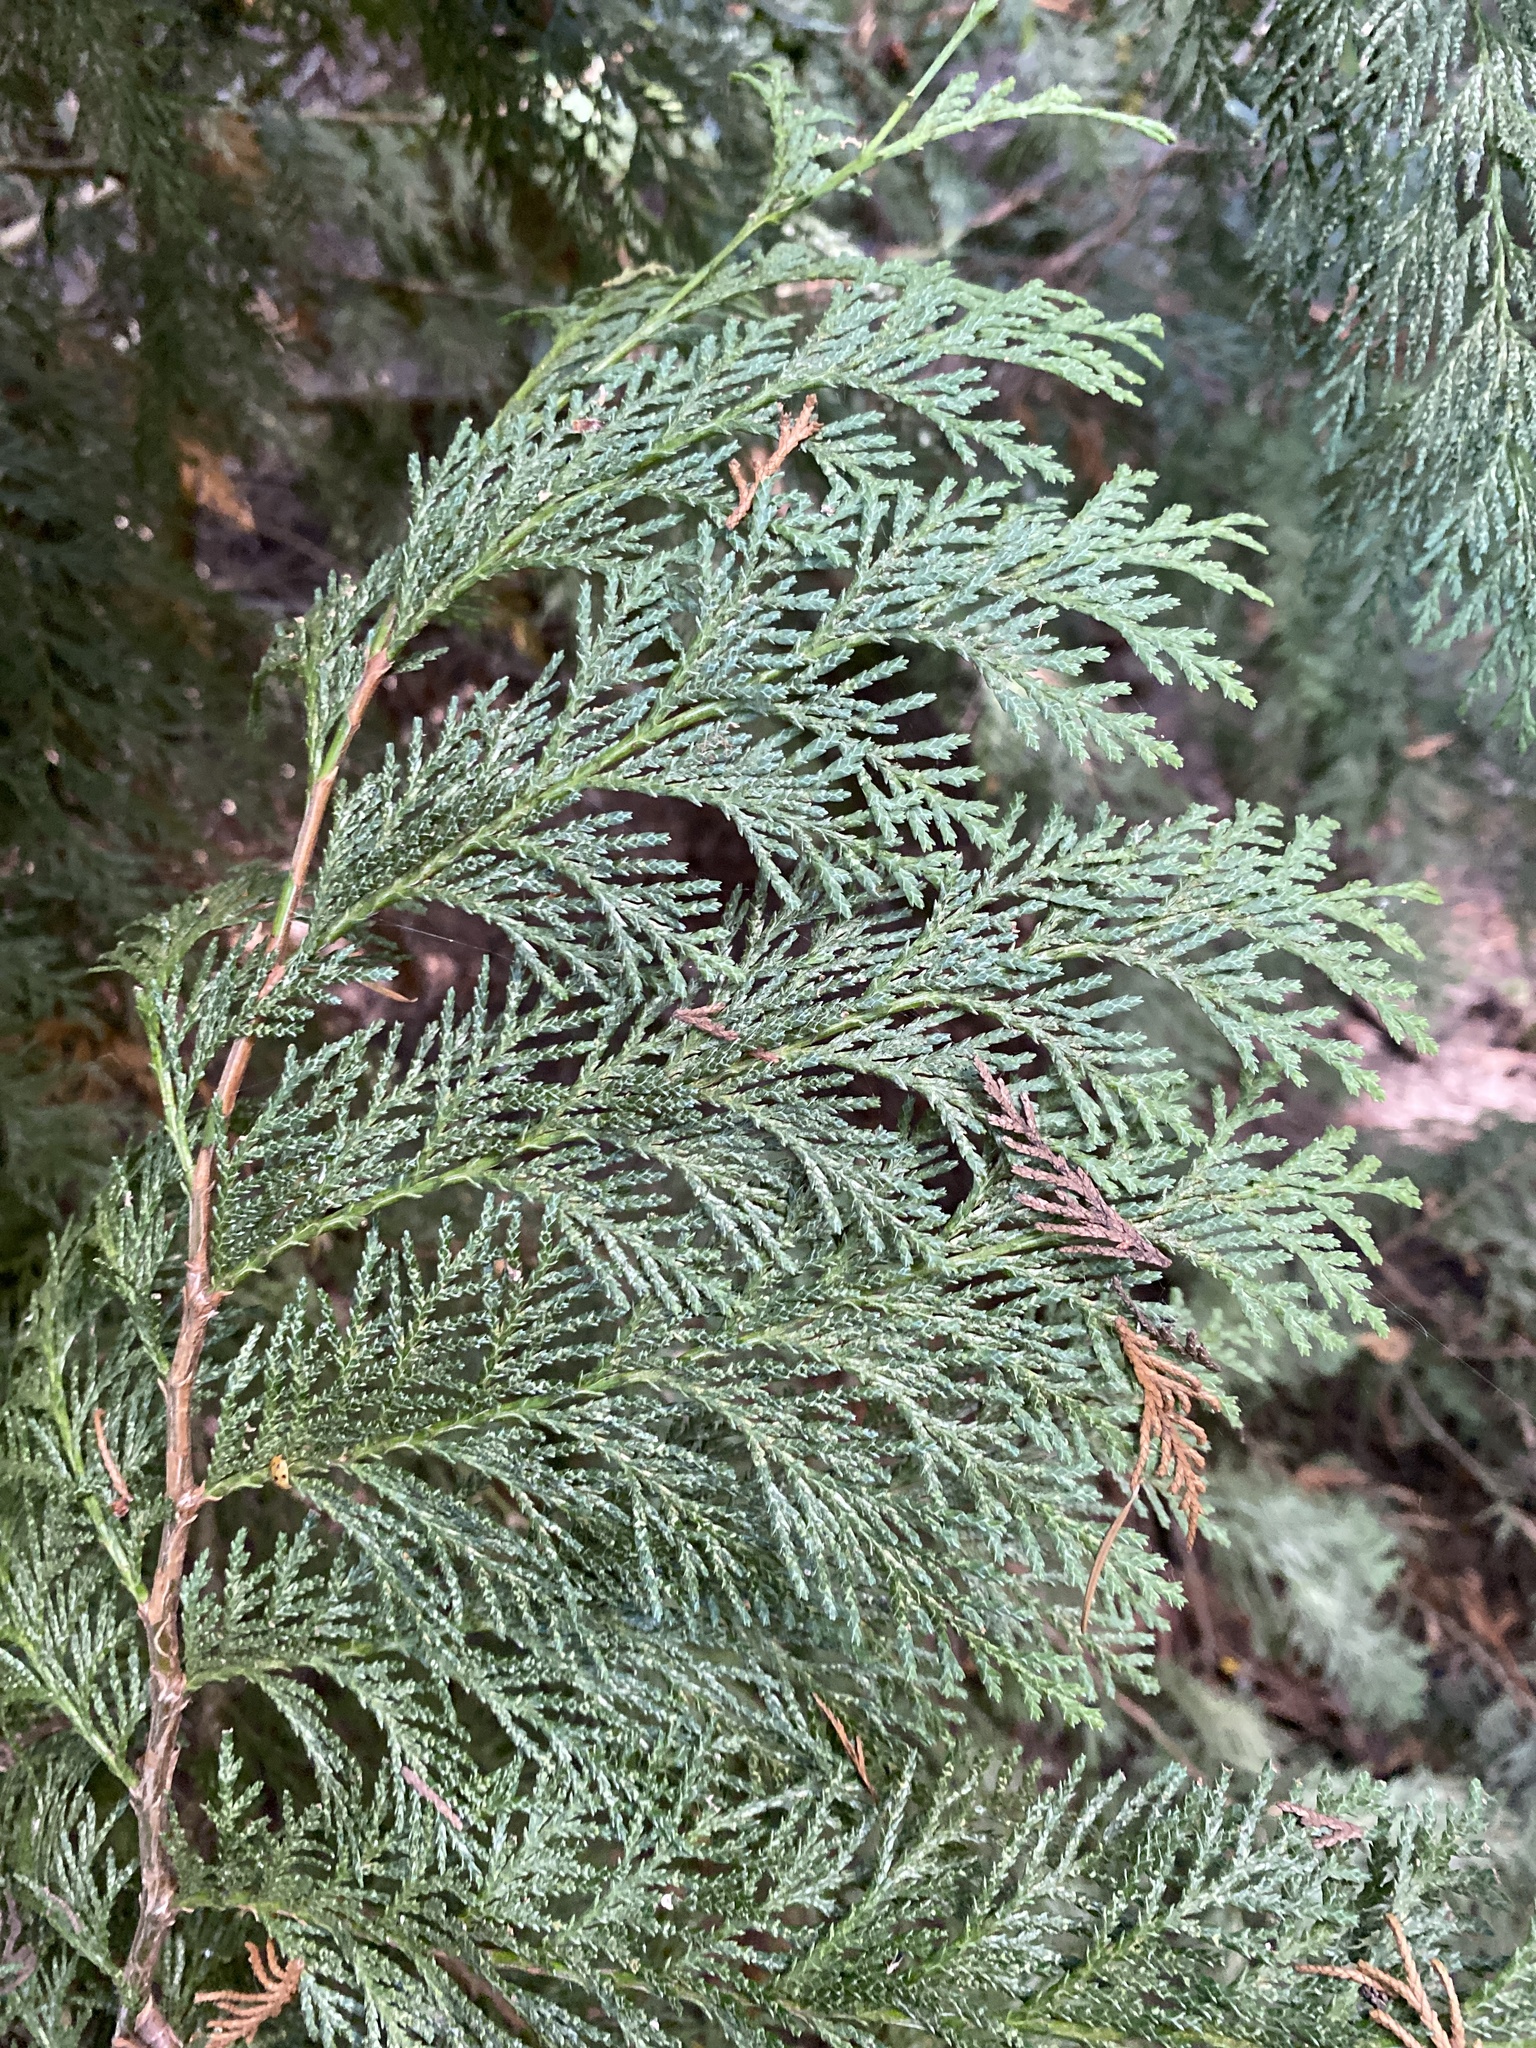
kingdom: Plantae
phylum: Tracheophyta
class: Pinopsida
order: Pinales
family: Cupressaceae
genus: Thuja
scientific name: Thuja plicata
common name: Western red-cedar
